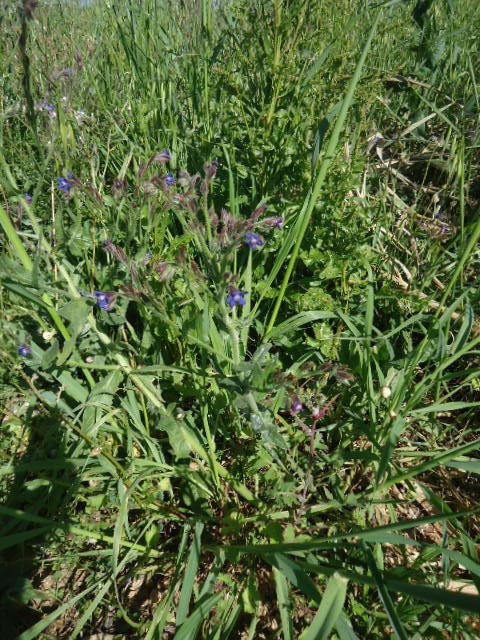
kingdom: Plantae
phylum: Tracheophyta
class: Magnoliopsida
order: Boraginales
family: Boraginaceae
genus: Anchusa
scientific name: Anchusa azurea
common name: Garden anchusa
